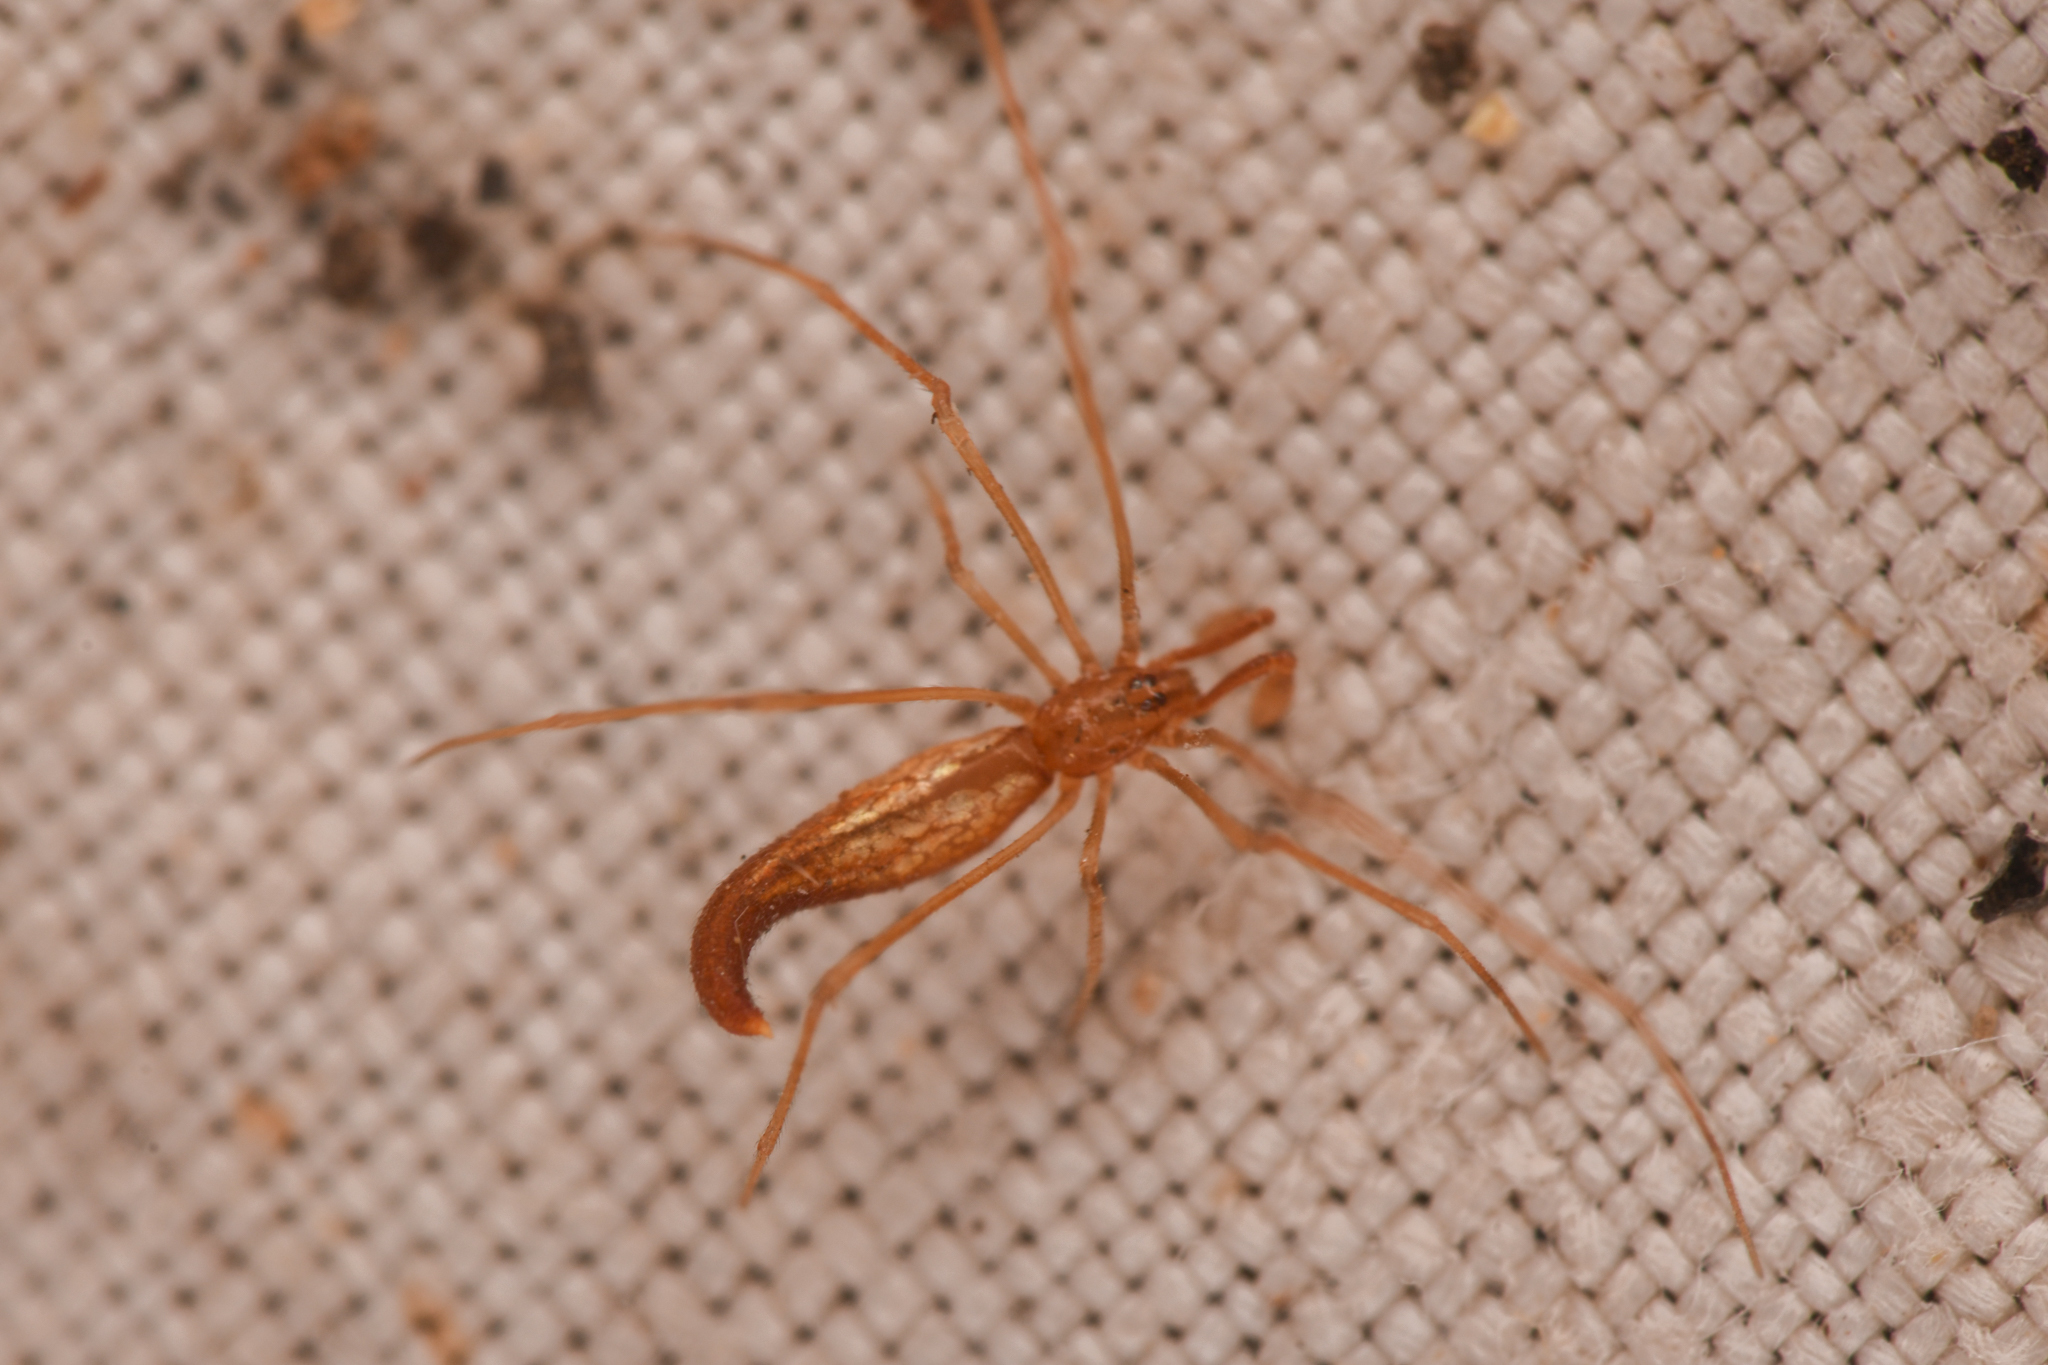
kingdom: Animalia
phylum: Arthropoda
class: Arachnida
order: Araneae
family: Theridiidae
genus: Rhomphaea
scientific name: Rhomphaea fictilium
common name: Lizard spider
